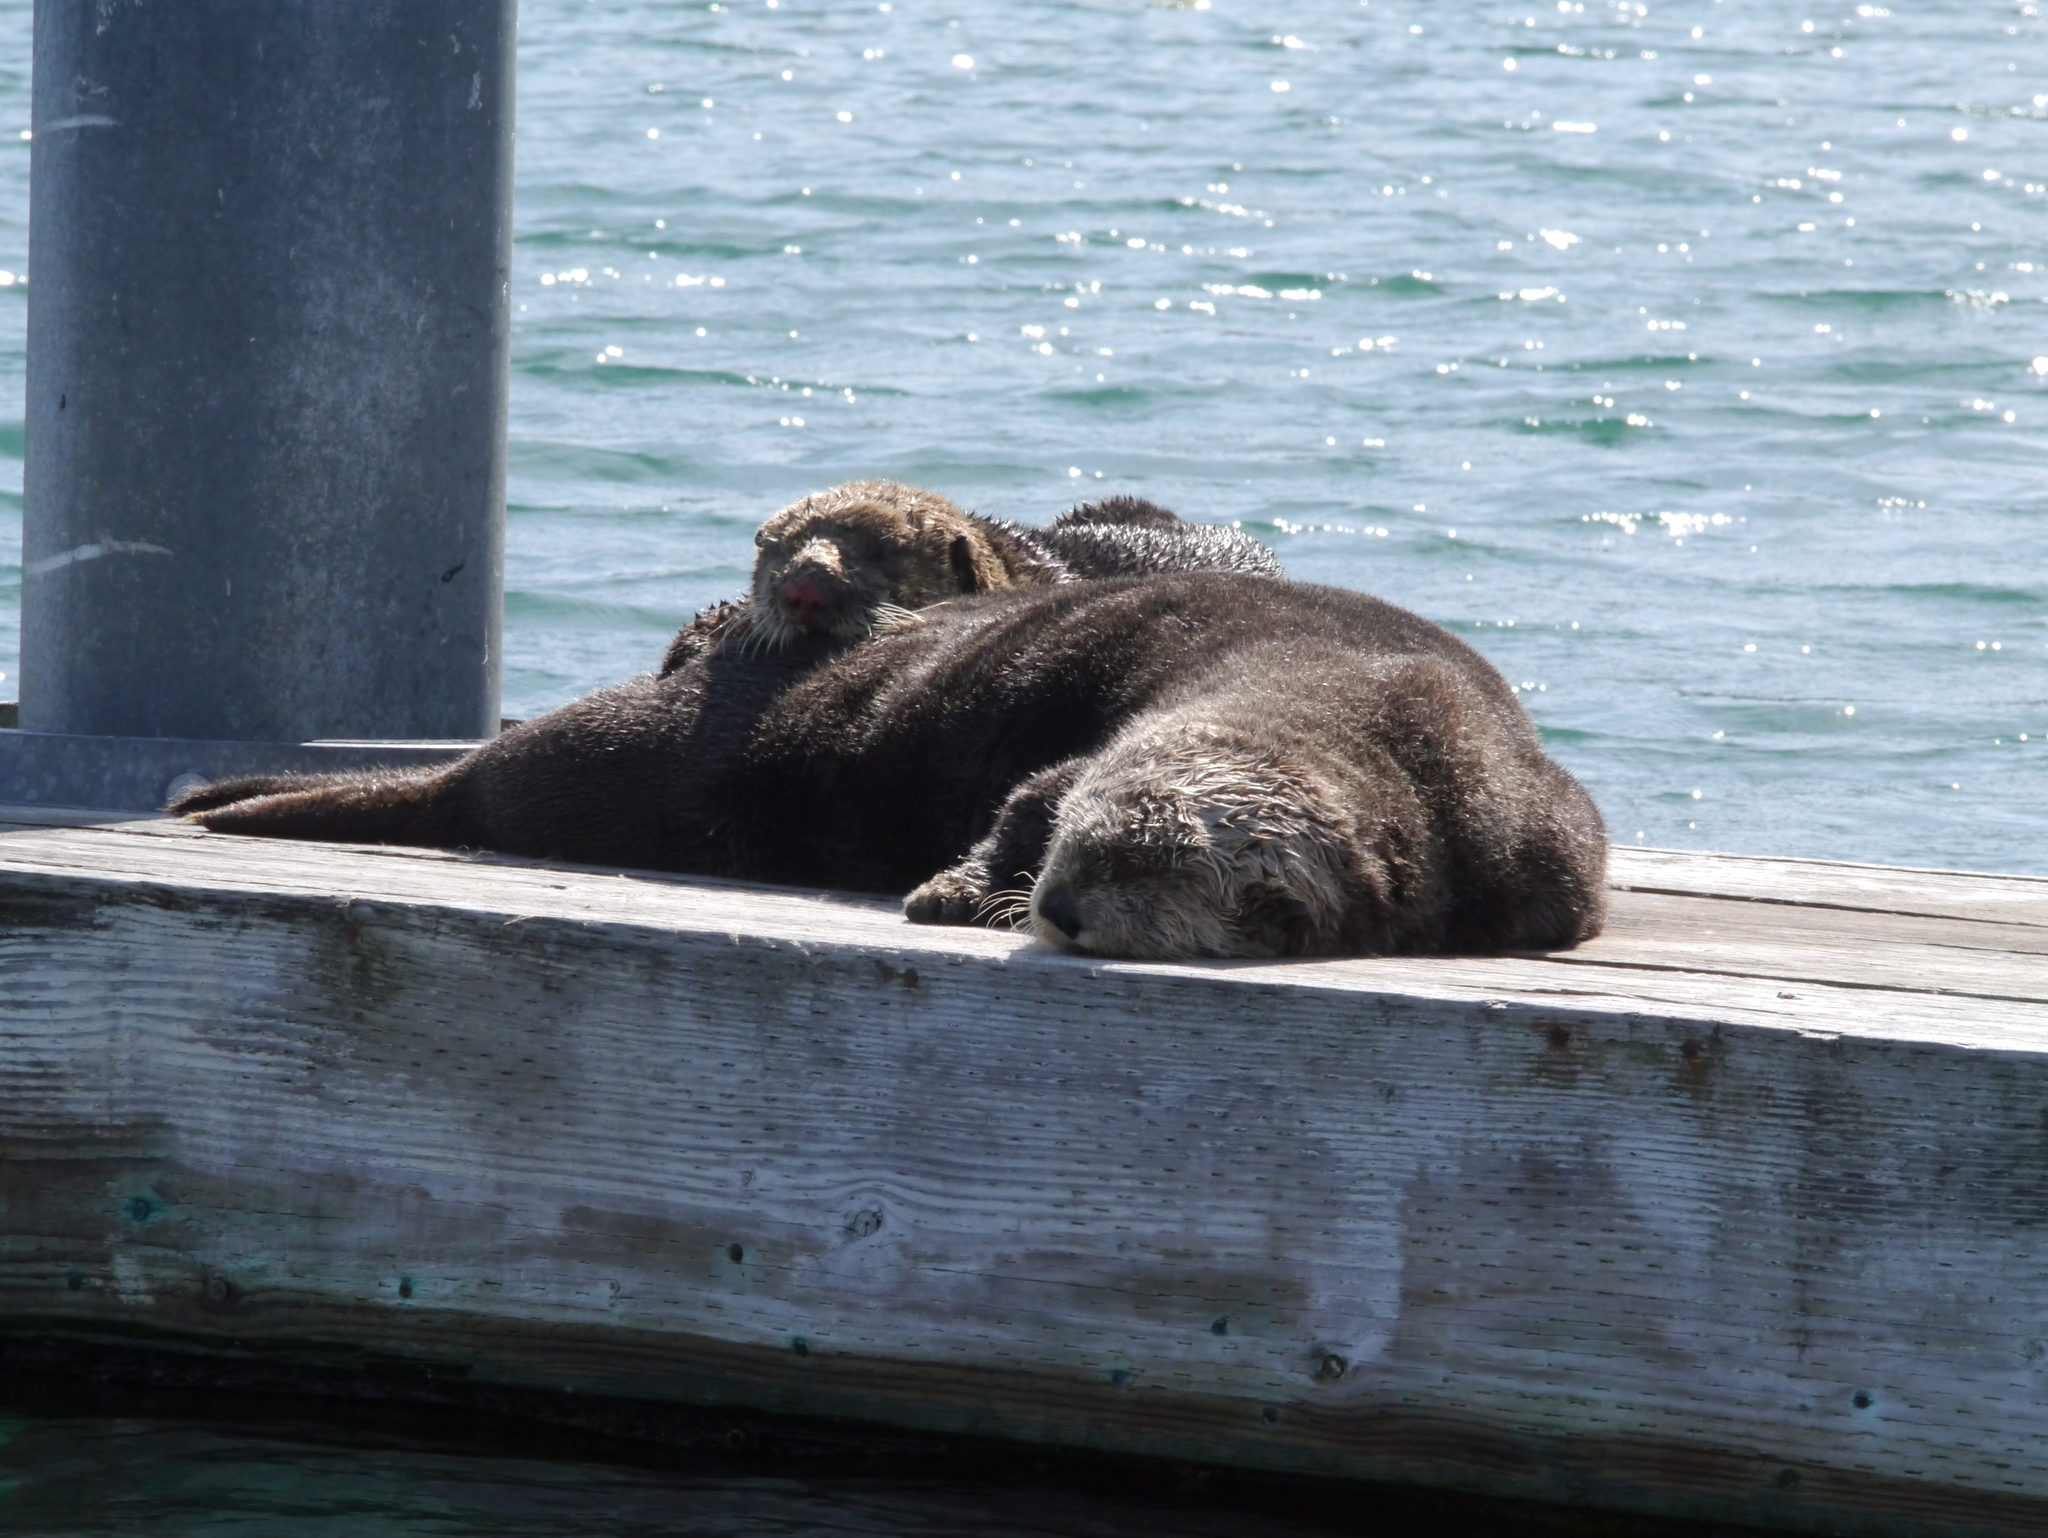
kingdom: Animalia
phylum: Chordata
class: Mammalia
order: Carnivora
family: Mustelidae
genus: Enhydra
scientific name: Enhydra lutris
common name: Sea otter
